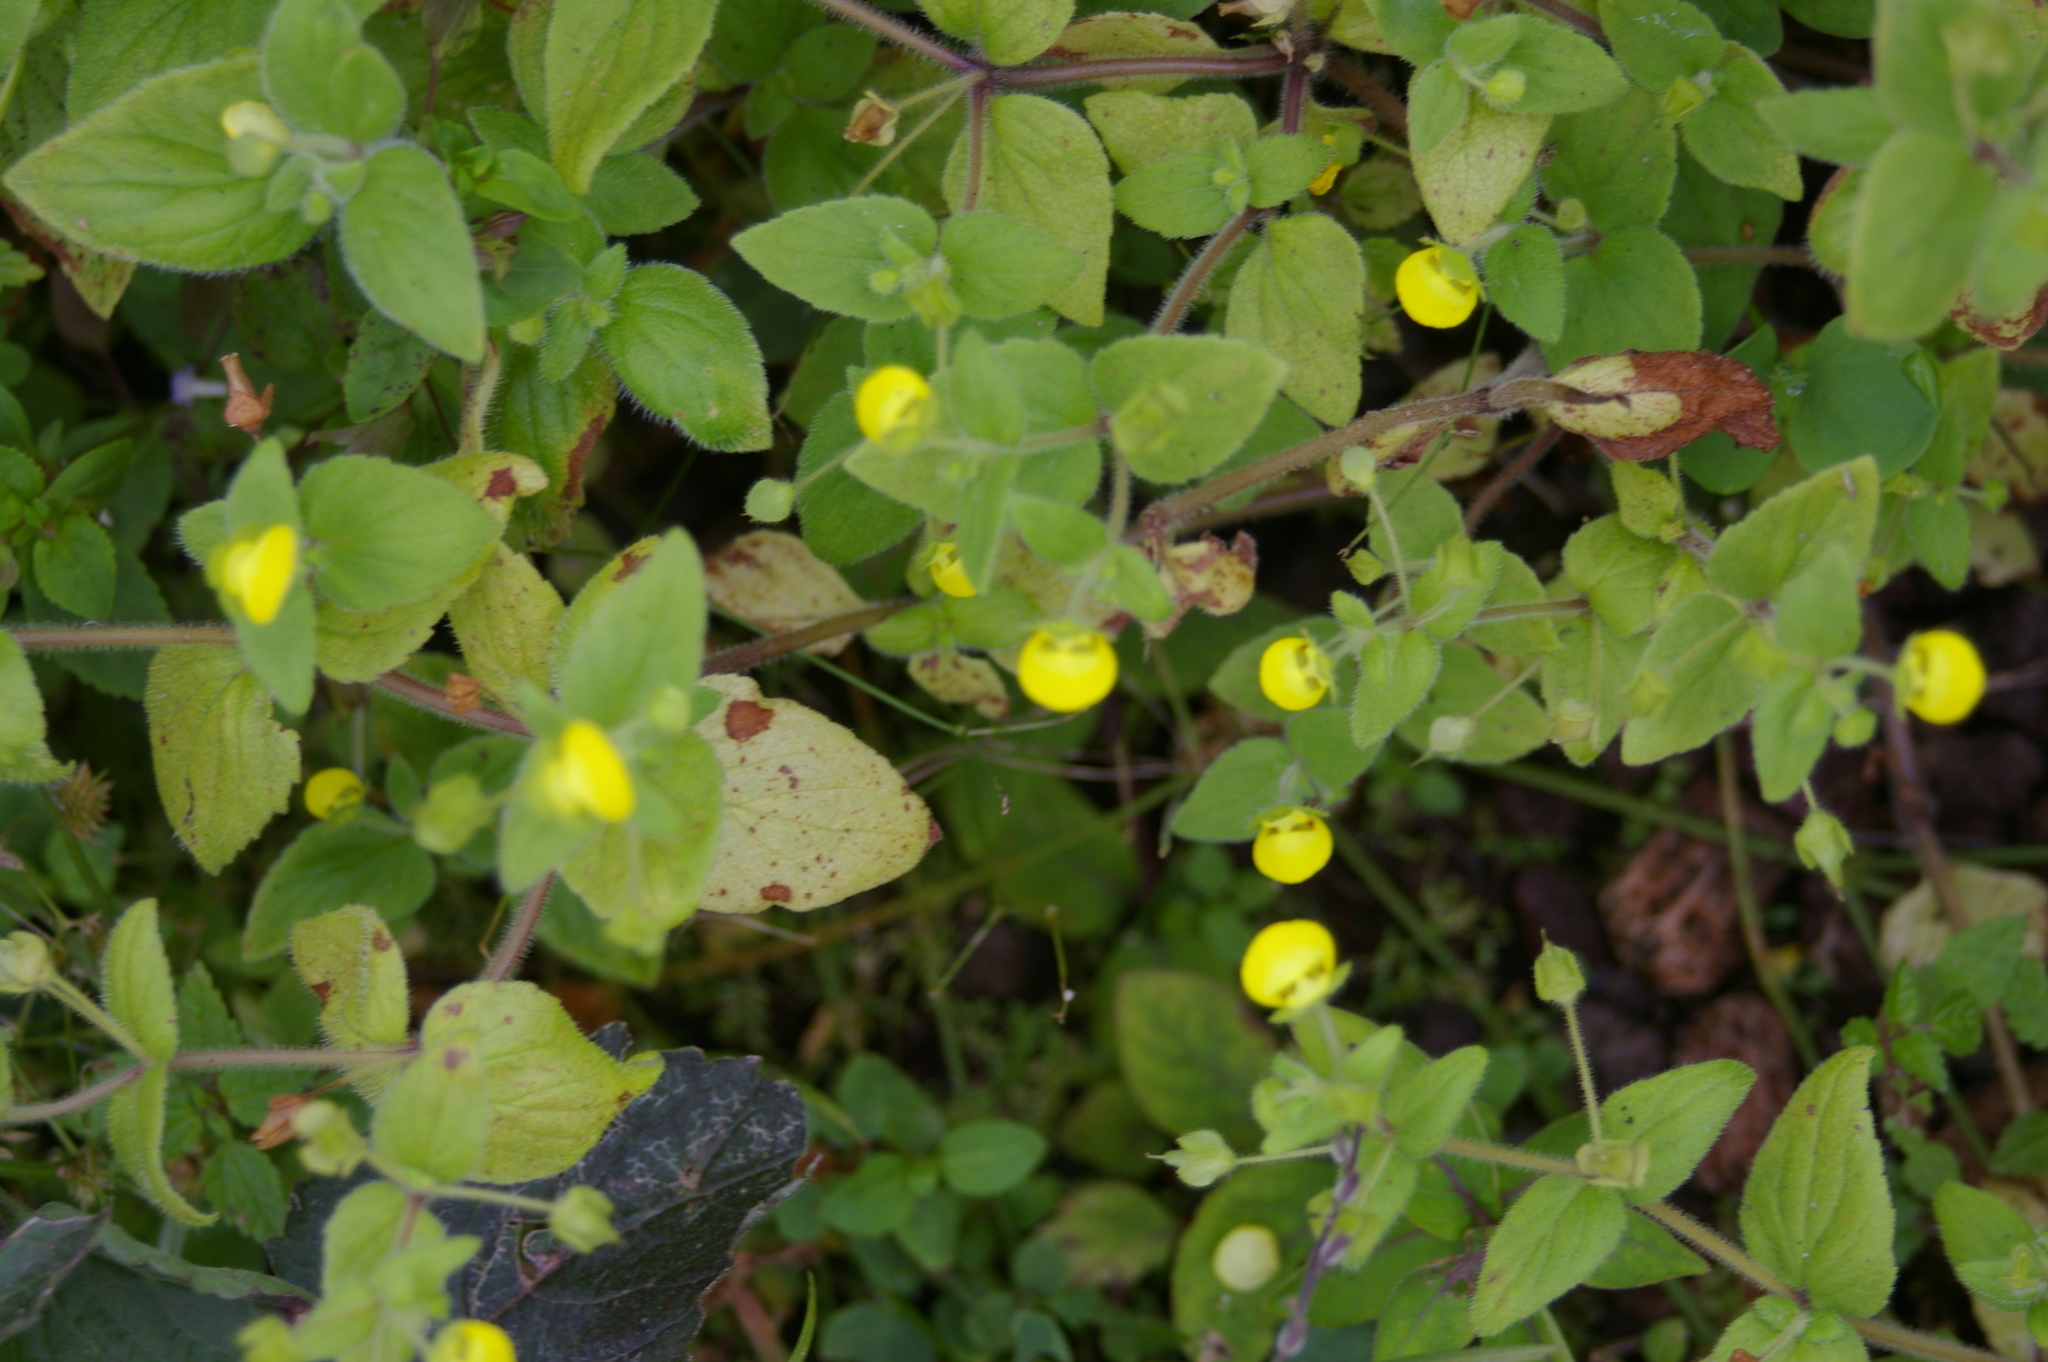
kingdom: Plantae
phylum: Tracheophyta
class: Magnoliopsida
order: Lamiales
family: Calceolariaceae
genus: Calceolaria
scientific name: Calceolaria dichotoma
